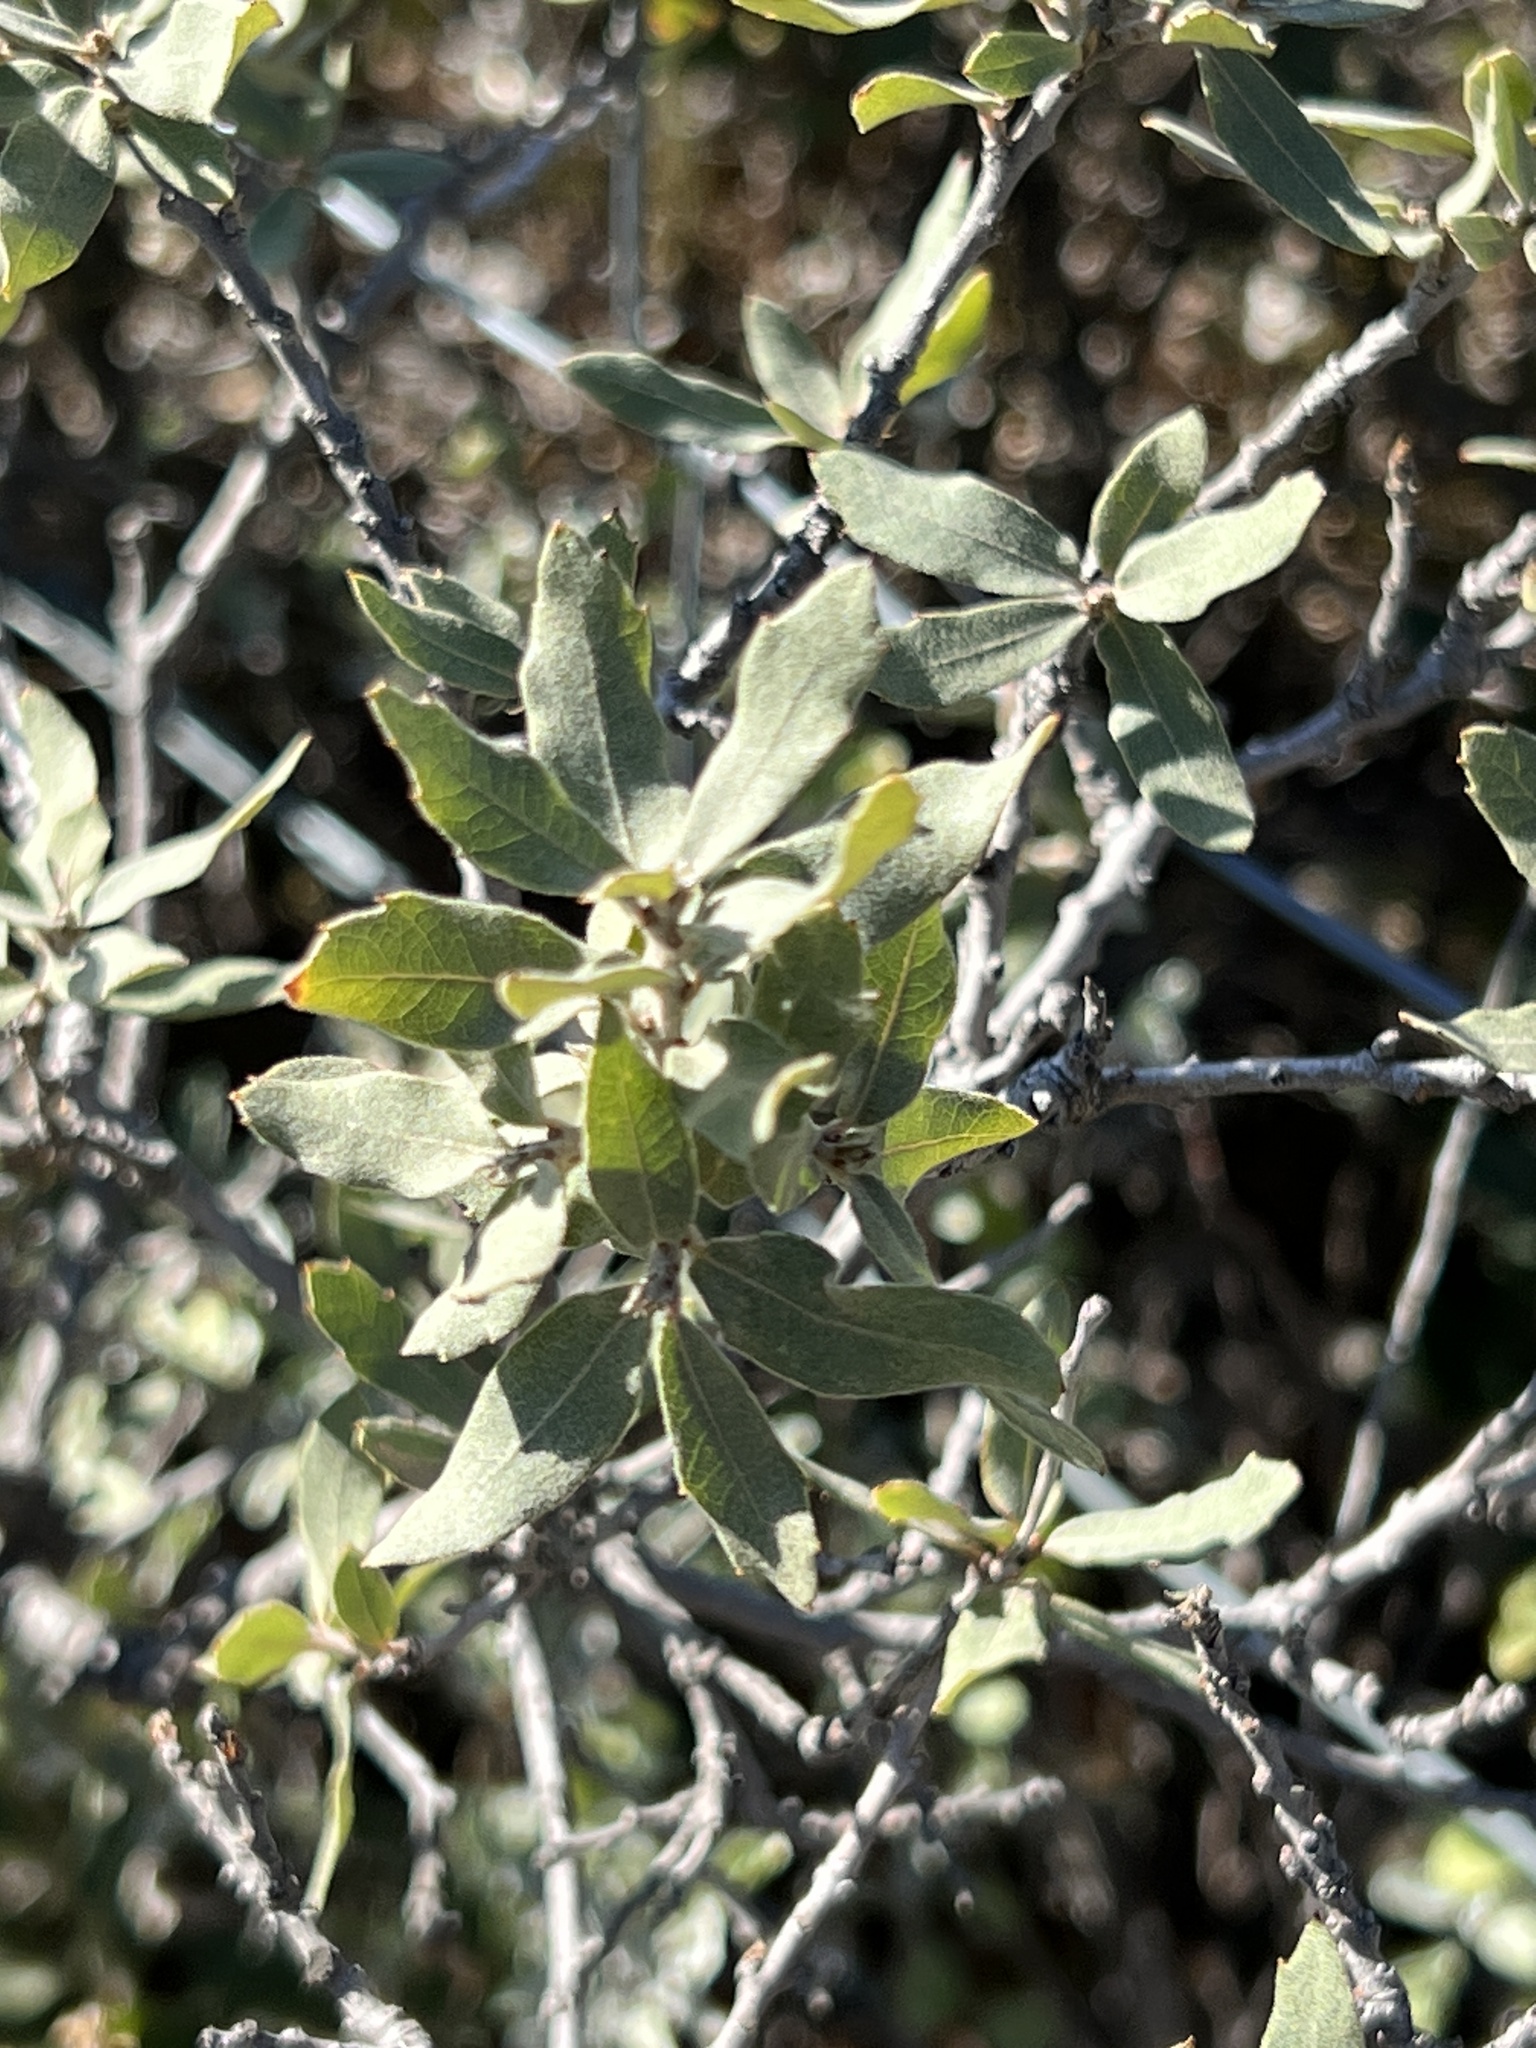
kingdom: Plantae
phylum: Tracheophyta
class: Magnoliopsida
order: Fagales
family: Fagaceae
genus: Quercus
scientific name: Quercus vaseyana
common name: Sandpaper oak
